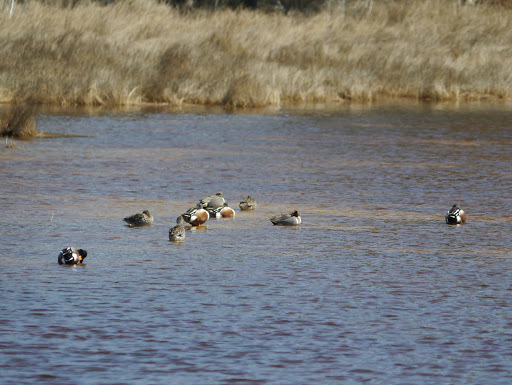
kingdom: Animalia
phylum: Chordata
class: Aves
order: Anseriformes
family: Anatidae
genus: Spatula
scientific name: Spatula clypeata
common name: Northern shoveler
